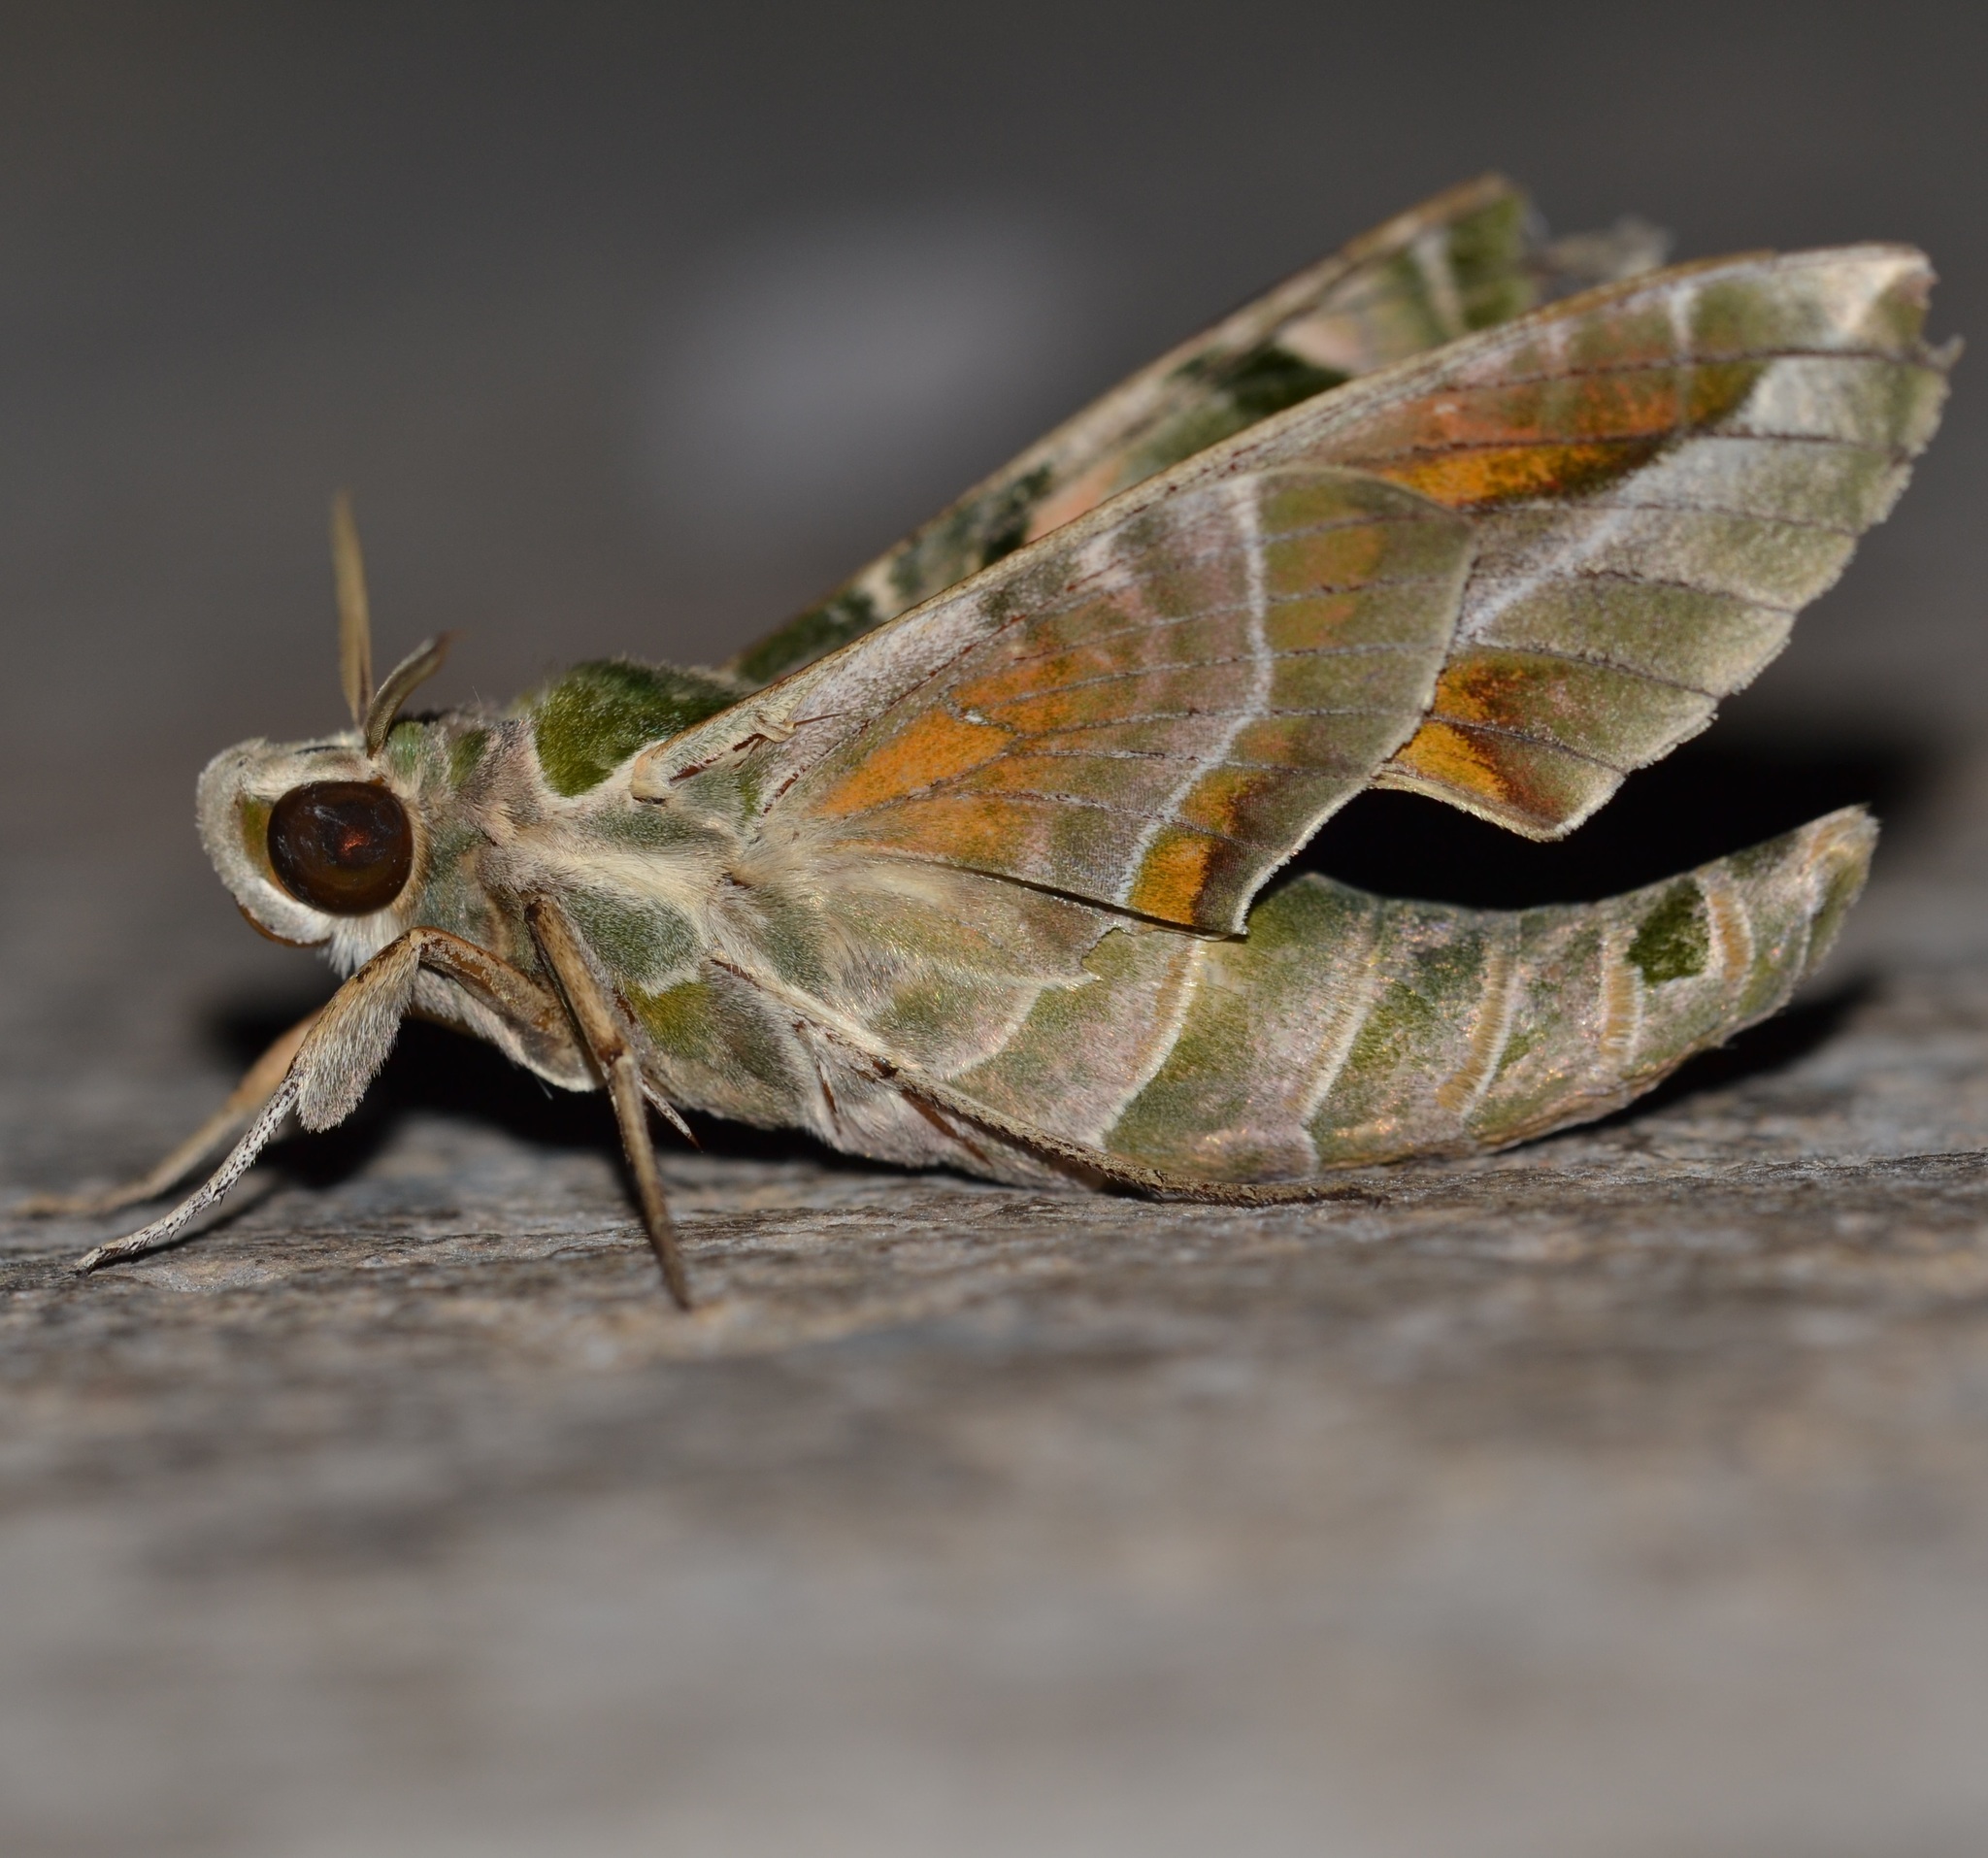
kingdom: Animalia
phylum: Arthropoda
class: Insecta
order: Lepidoptera
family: Sphingidae
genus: Daphnis
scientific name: Daphnis nerii
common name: Oleander hawk-moth
